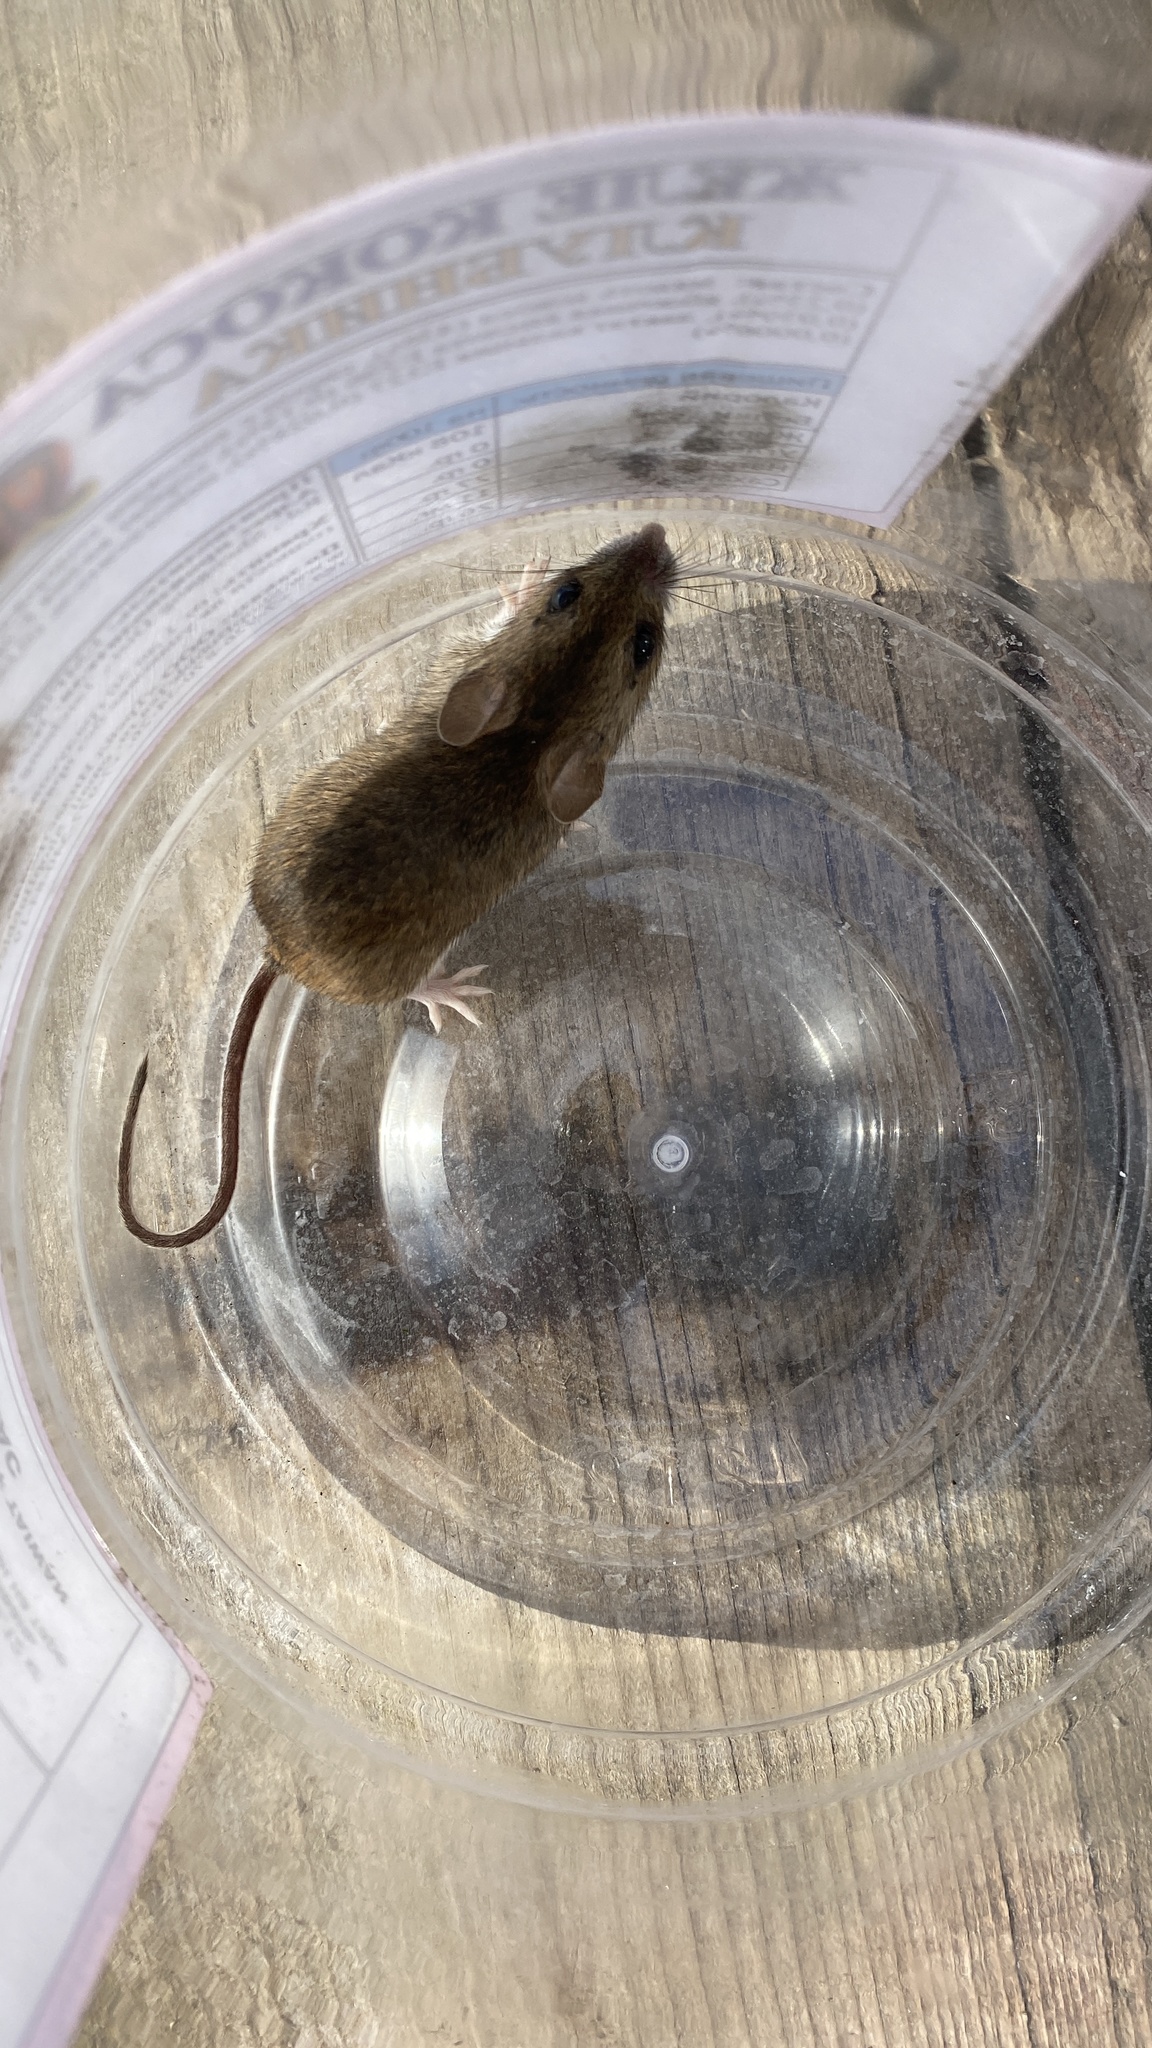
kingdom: Animalia
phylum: Chordata
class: Mammalia
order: Rodentia
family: Muridae
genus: Apodemus
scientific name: Apodemus uralensis
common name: Herb field mouse
